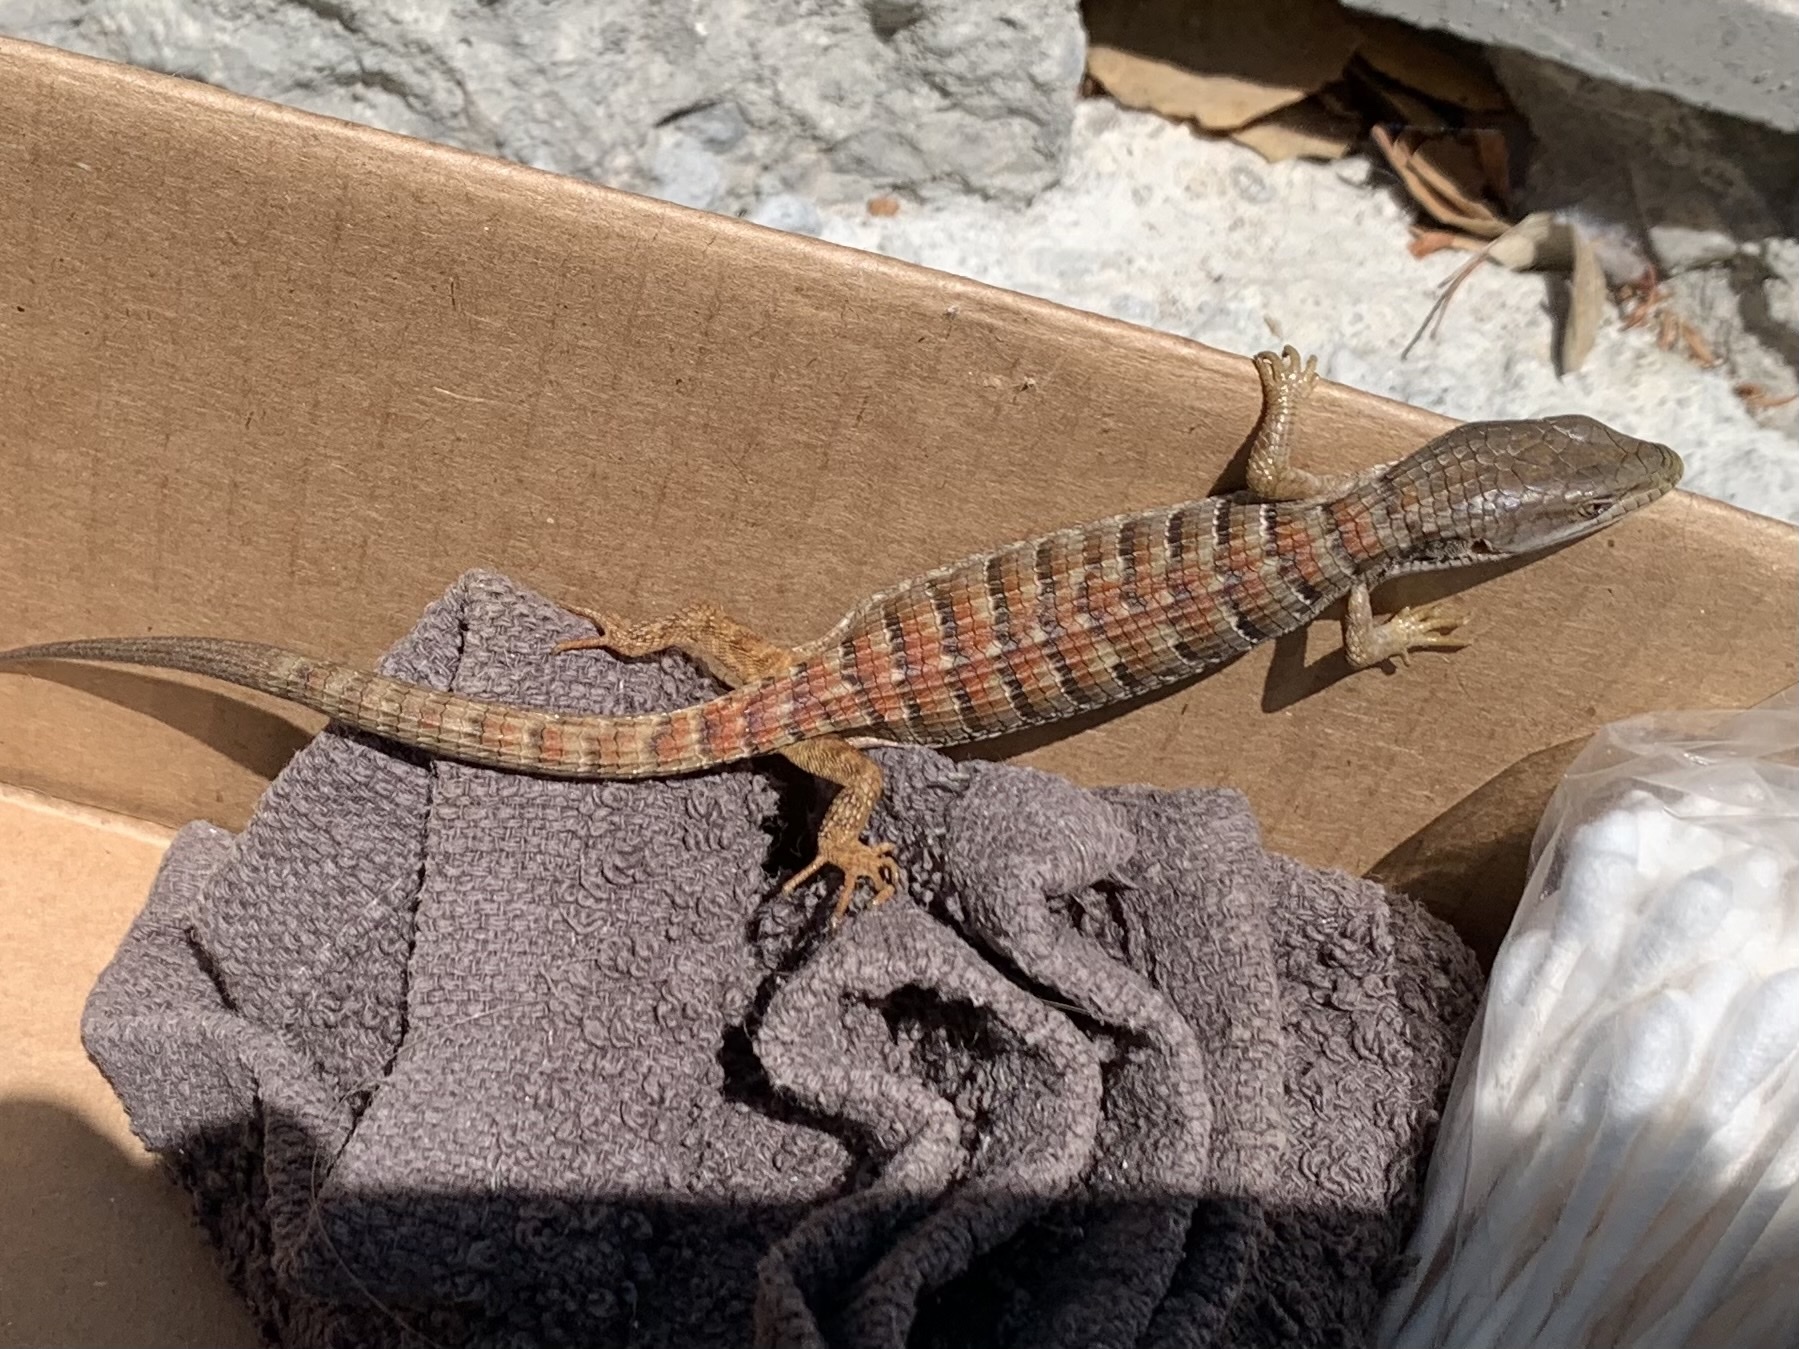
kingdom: Animalia
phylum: Chordata
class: Squamata
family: Anguidae
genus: Elgaria
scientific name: Elgaria multicarinata
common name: Southern alligator lizard
